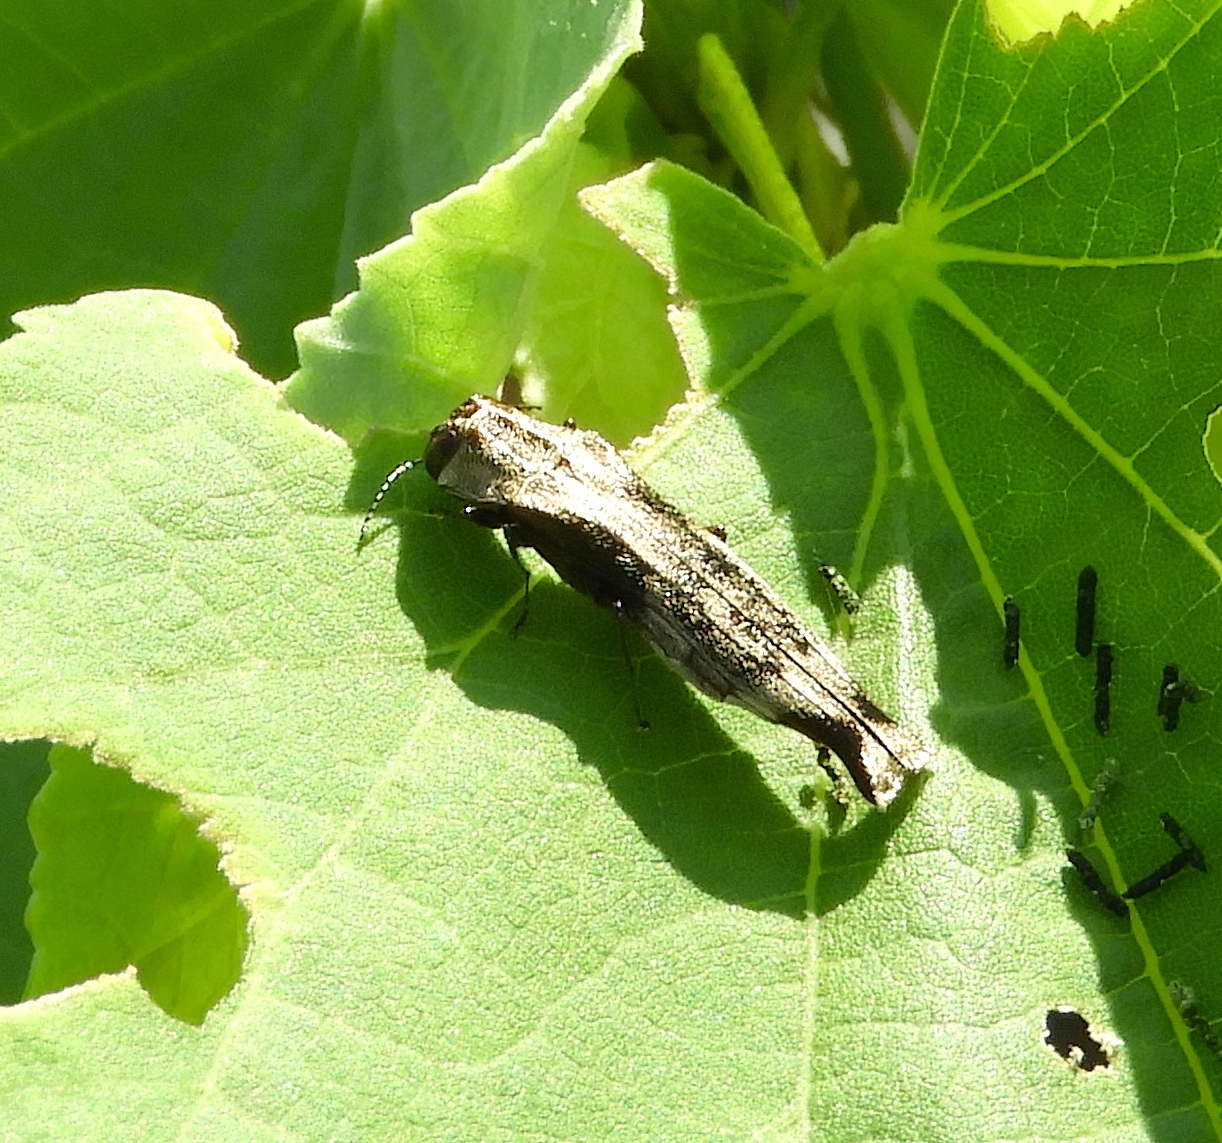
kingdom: Animalia
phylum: Arthropoda
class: Insecta
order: Coleoptera
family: Buprestidae
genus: Agrilus
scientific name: Agrilus langei
